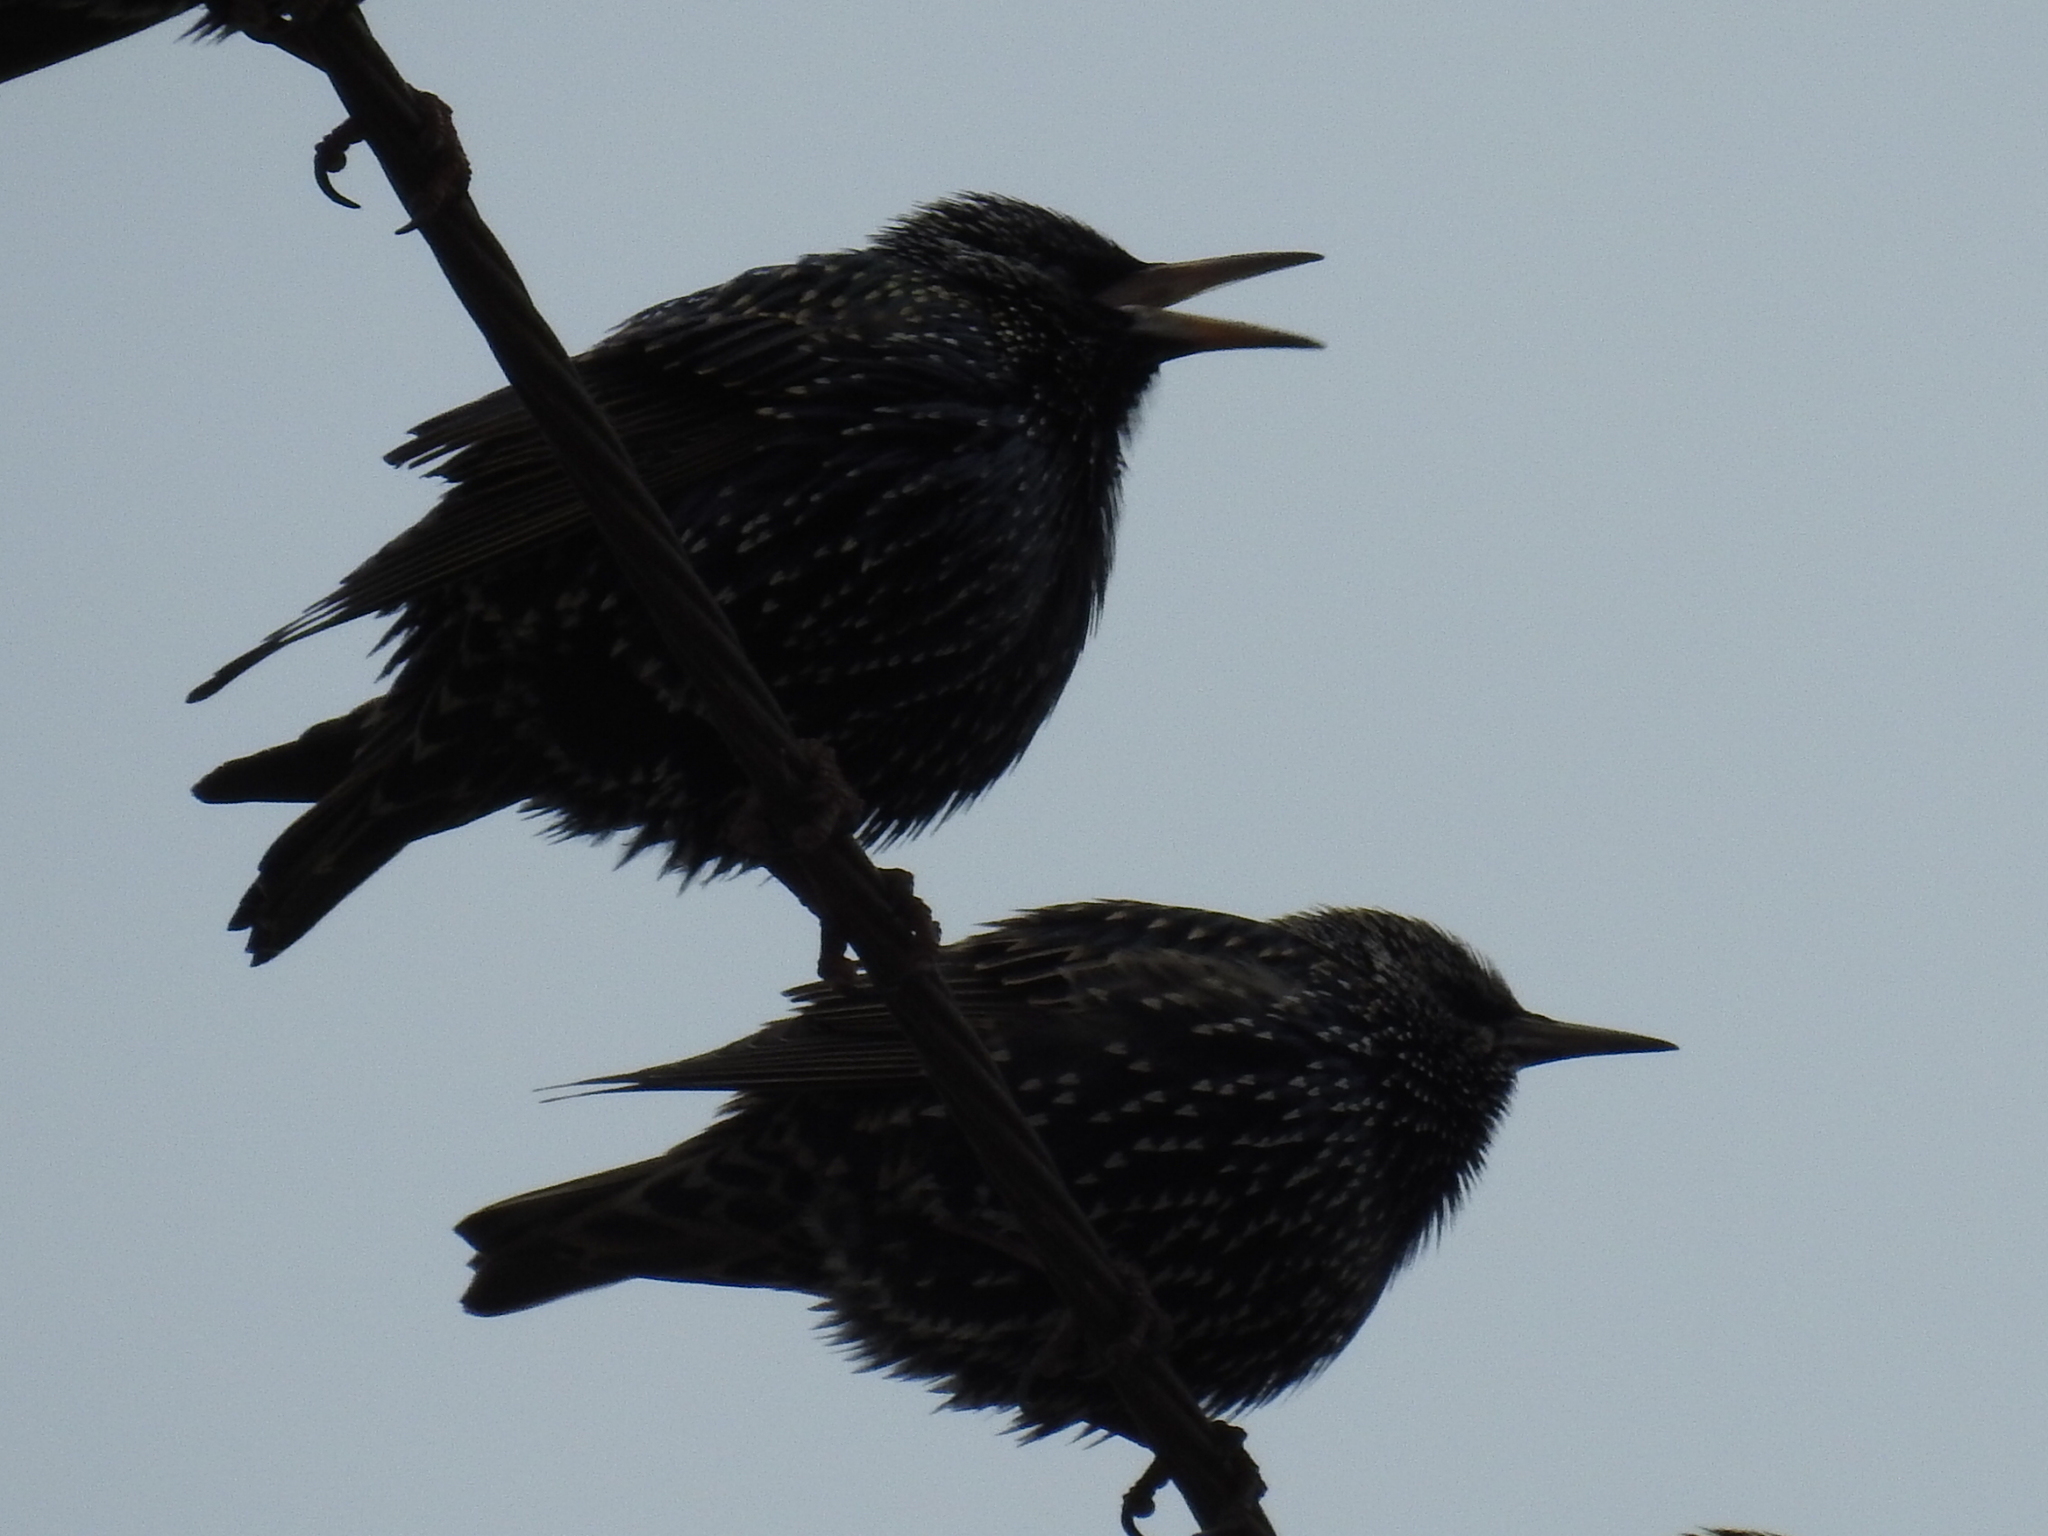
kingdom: Animalia
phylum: Chordata
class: Aves
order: Passeriformes
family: Sturnidae
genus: Sturnus
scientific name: Sturnus vulgaris
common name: Common starling
